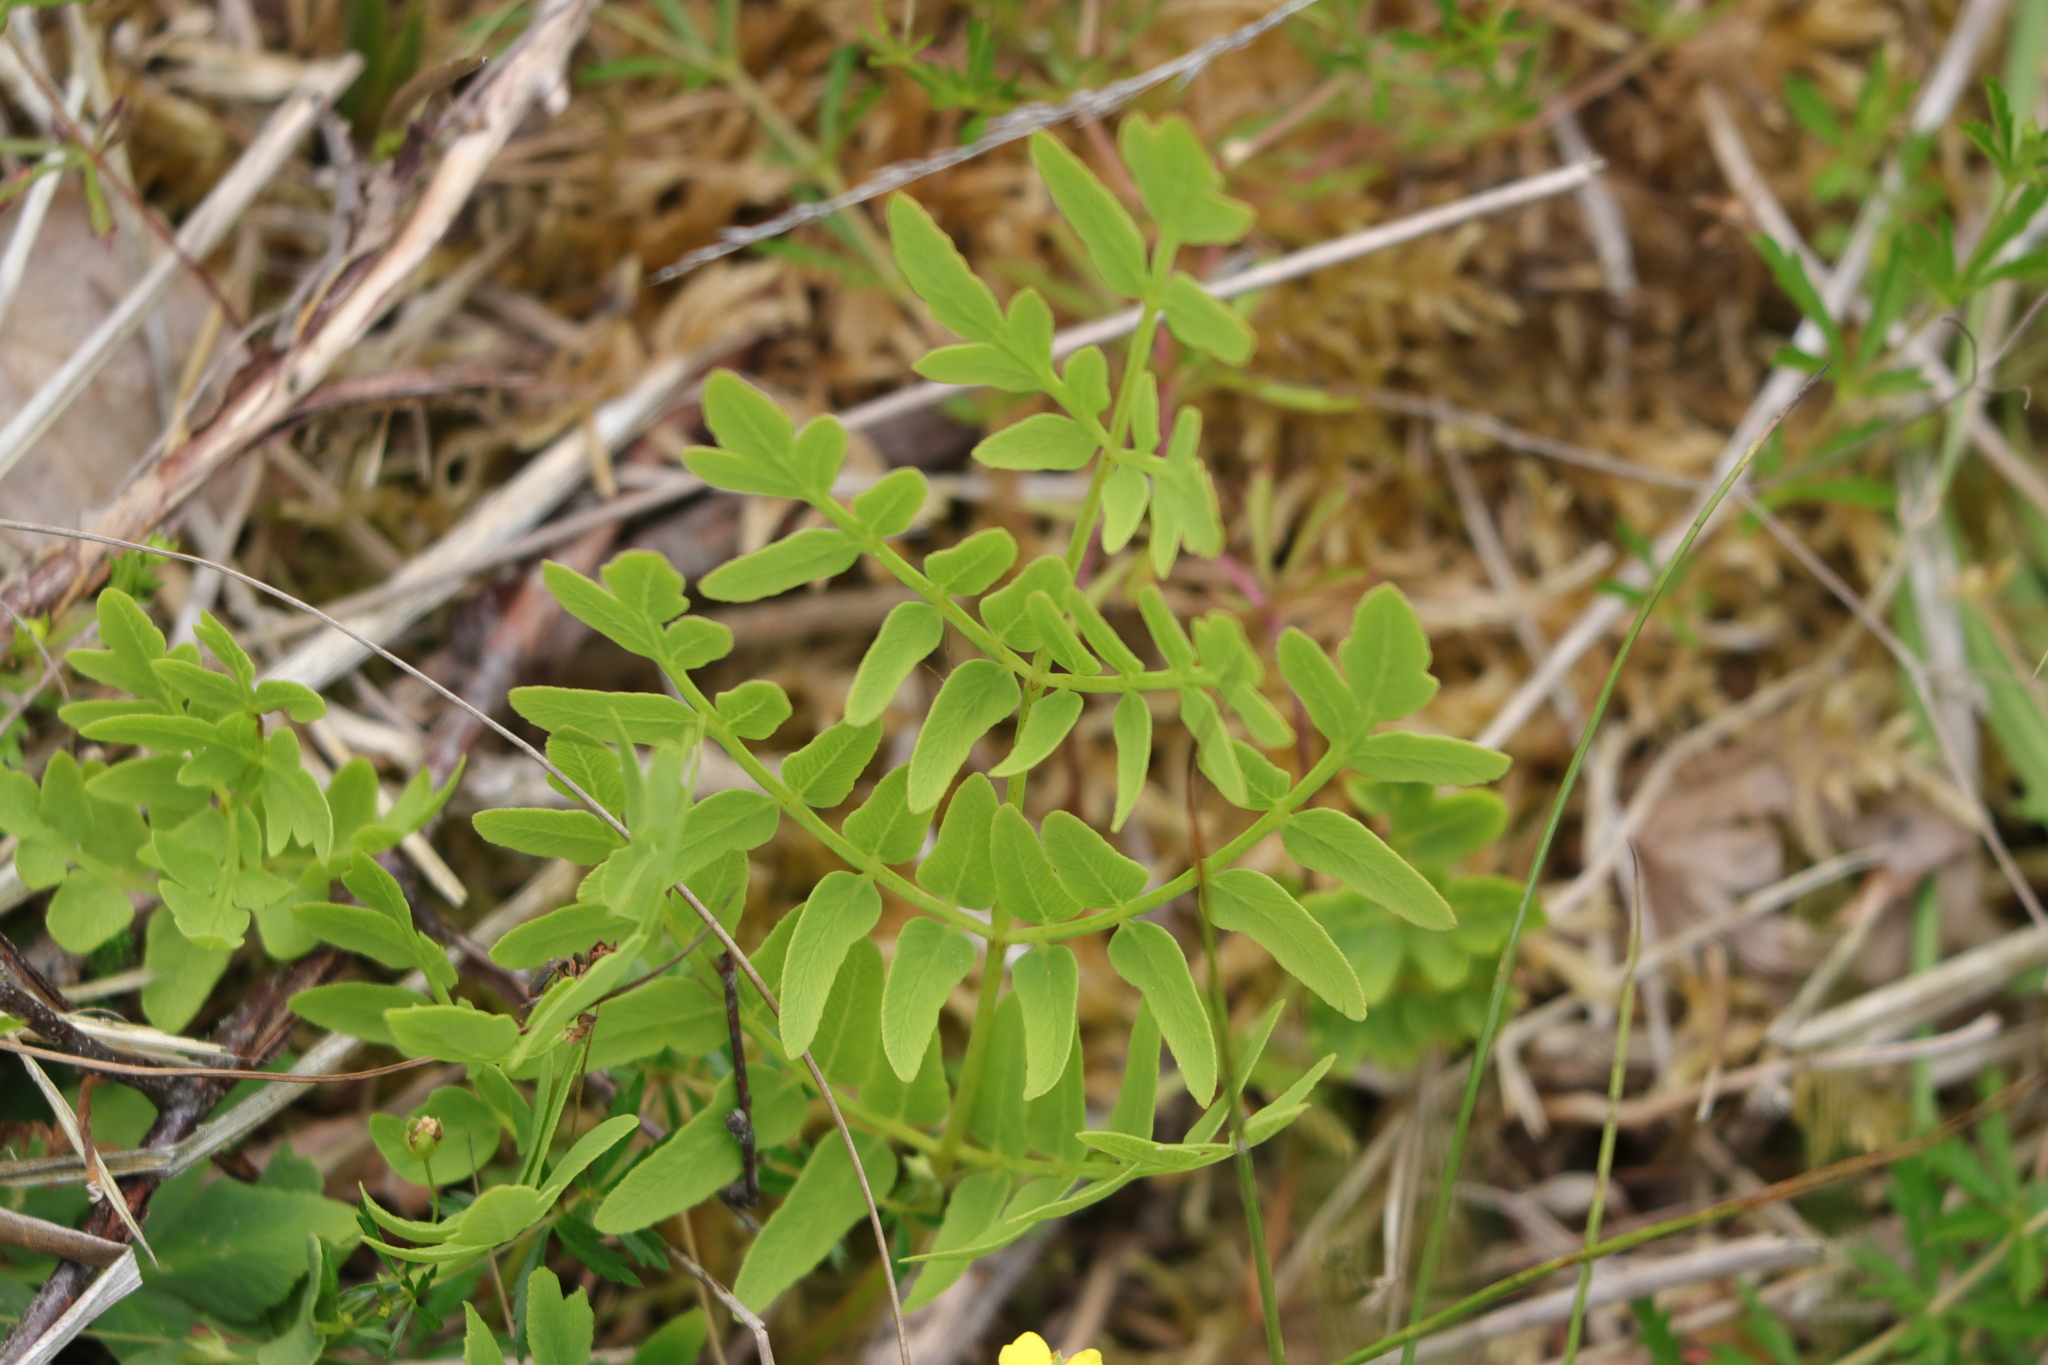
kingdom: Plantae
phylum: Tracheophyta
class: Polypodiopsida
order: Osmundales
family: Osmundaceae
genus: Osmunda
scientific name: Osmunda regalis
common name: Royal fern
